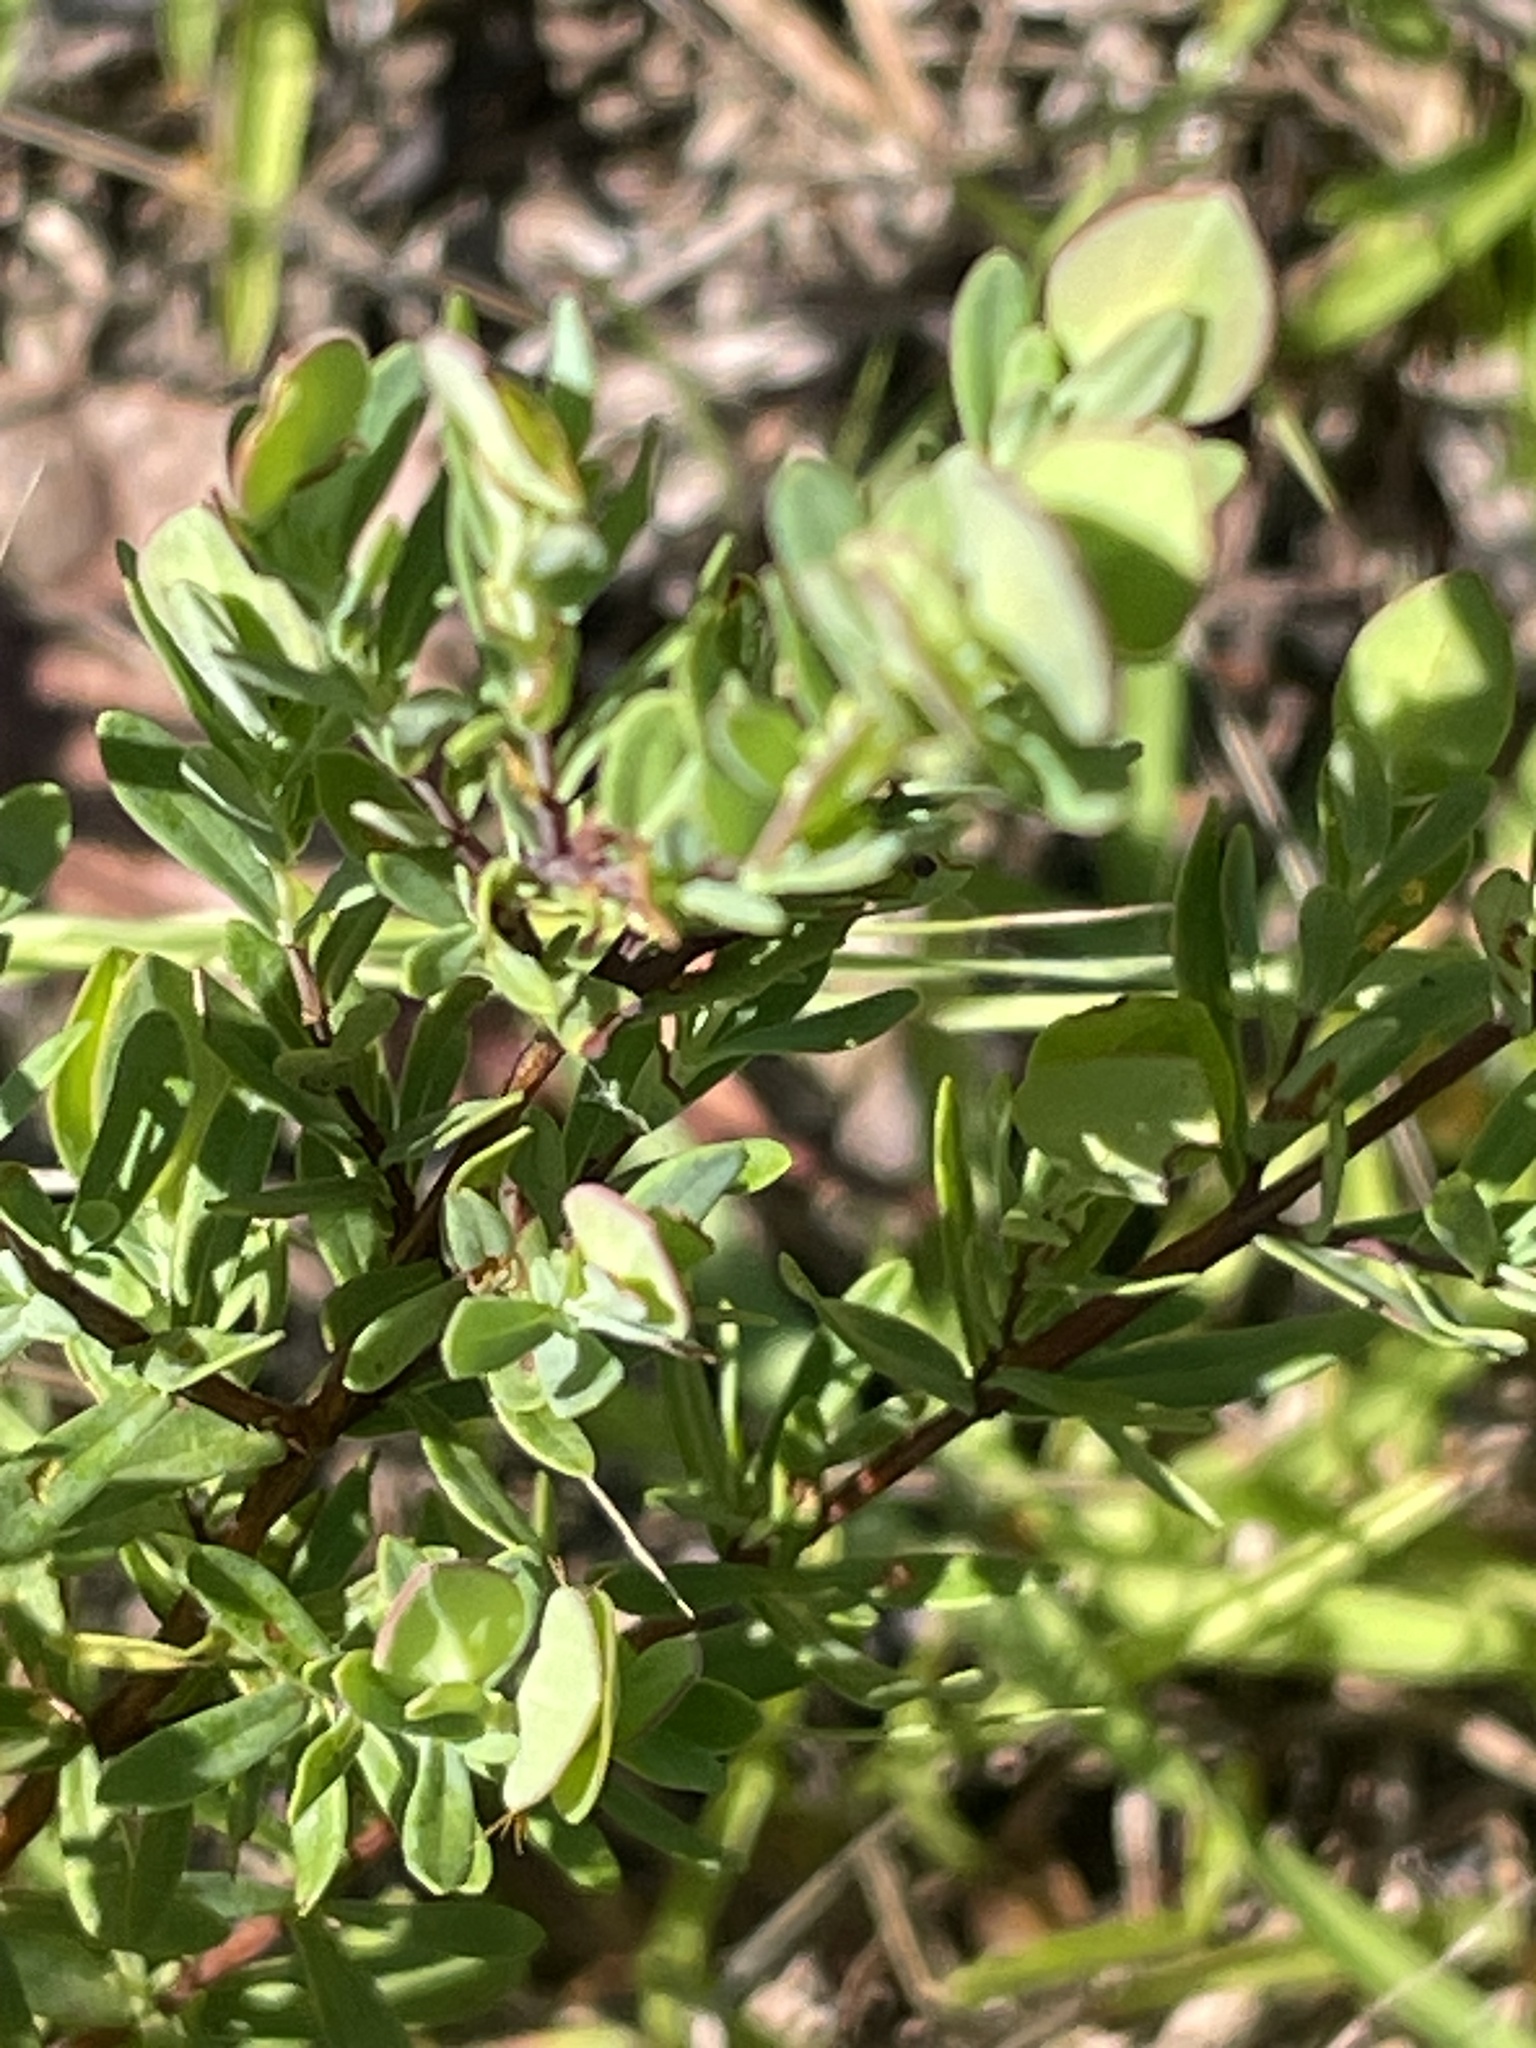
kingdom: Plantae
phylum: Tracheophyta
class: Magnoliopsida
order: Malpighiales
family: Hypericaceae
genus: Hypericum
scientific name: Hypericum hypericoides
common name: St. andrew's cross
